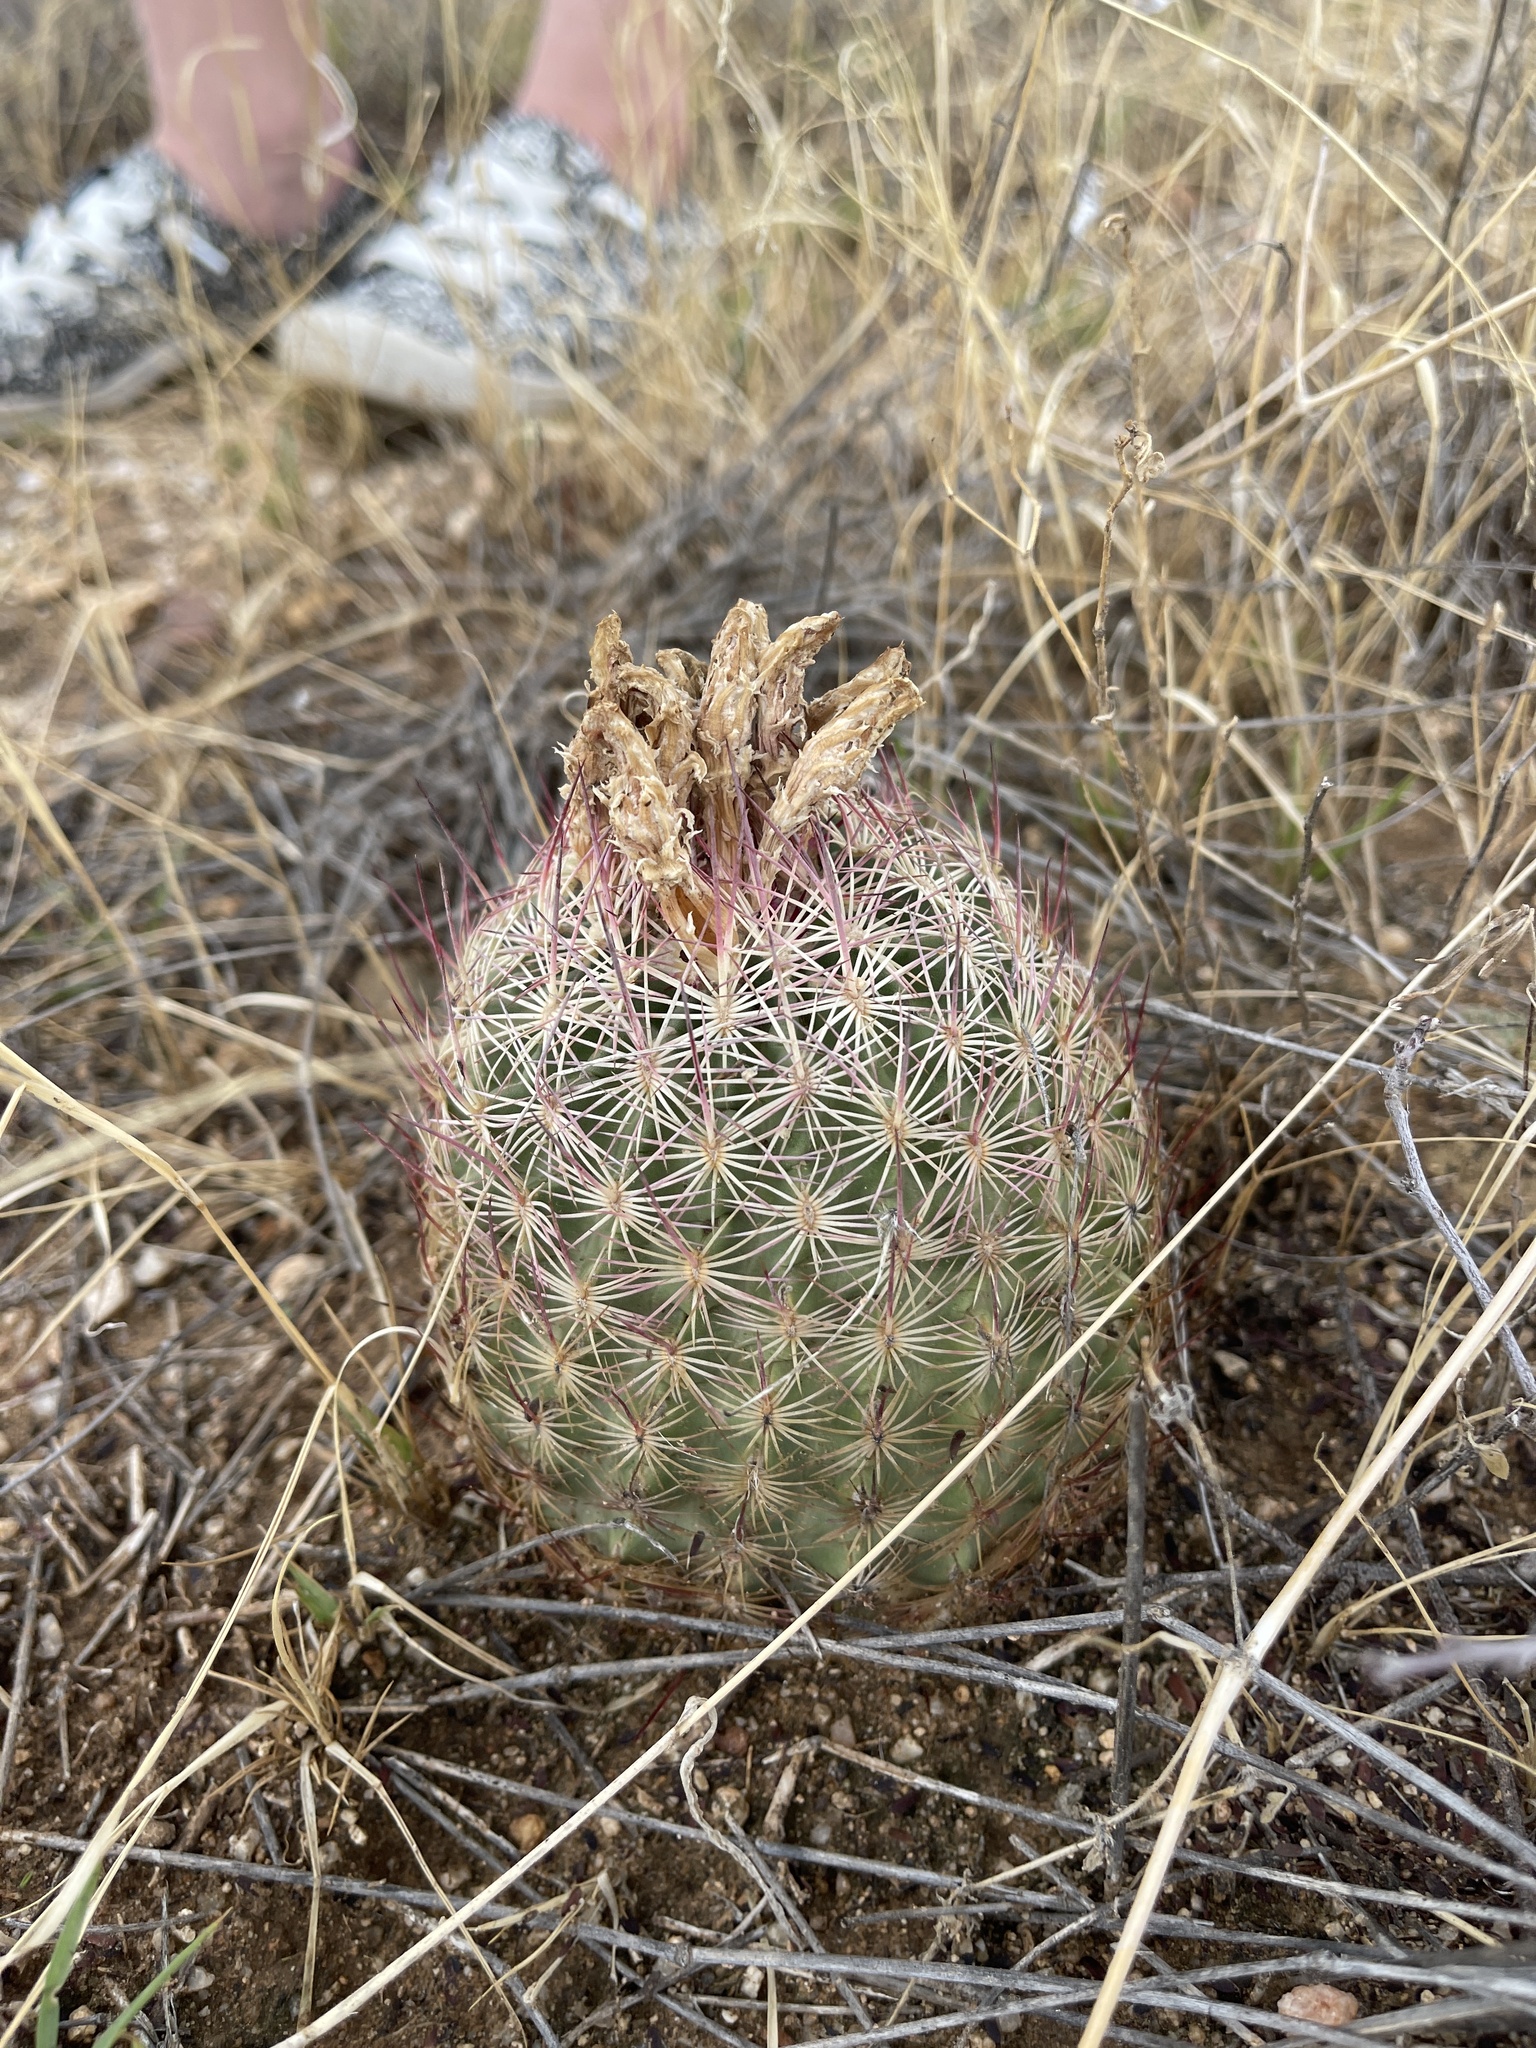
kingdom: Plantae
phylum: Tracheophyta
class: Magnoliopsida
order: Caryophyllales
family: Cactaceae
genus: Sclerocactus
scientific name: Sclerocactus johnsonii
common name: Eight-spine fishhook cactus
